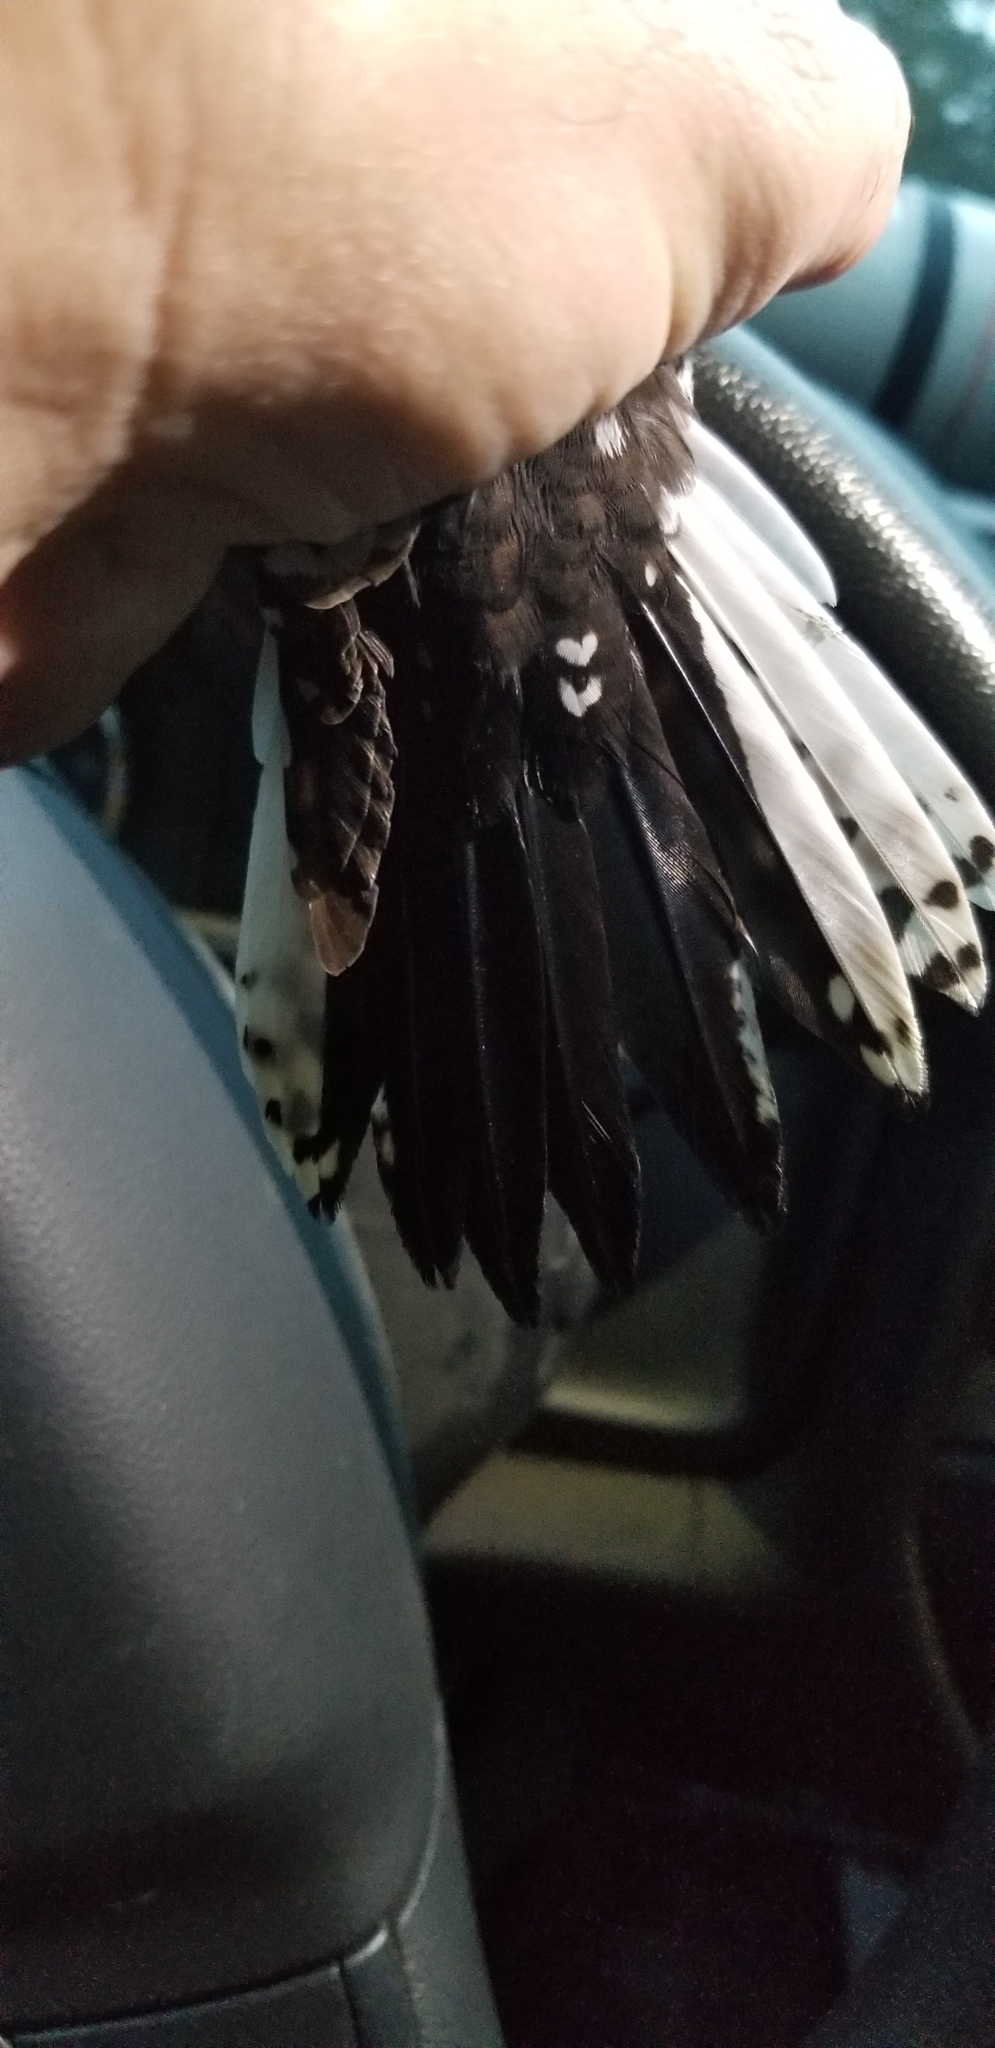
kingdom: Animalia
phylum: Chordata
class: Aves
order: Piciformes
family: Picidae
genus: Leuconotopicus
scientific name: Leuconotopicus borealis
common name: Red-cockaded woodpecker
